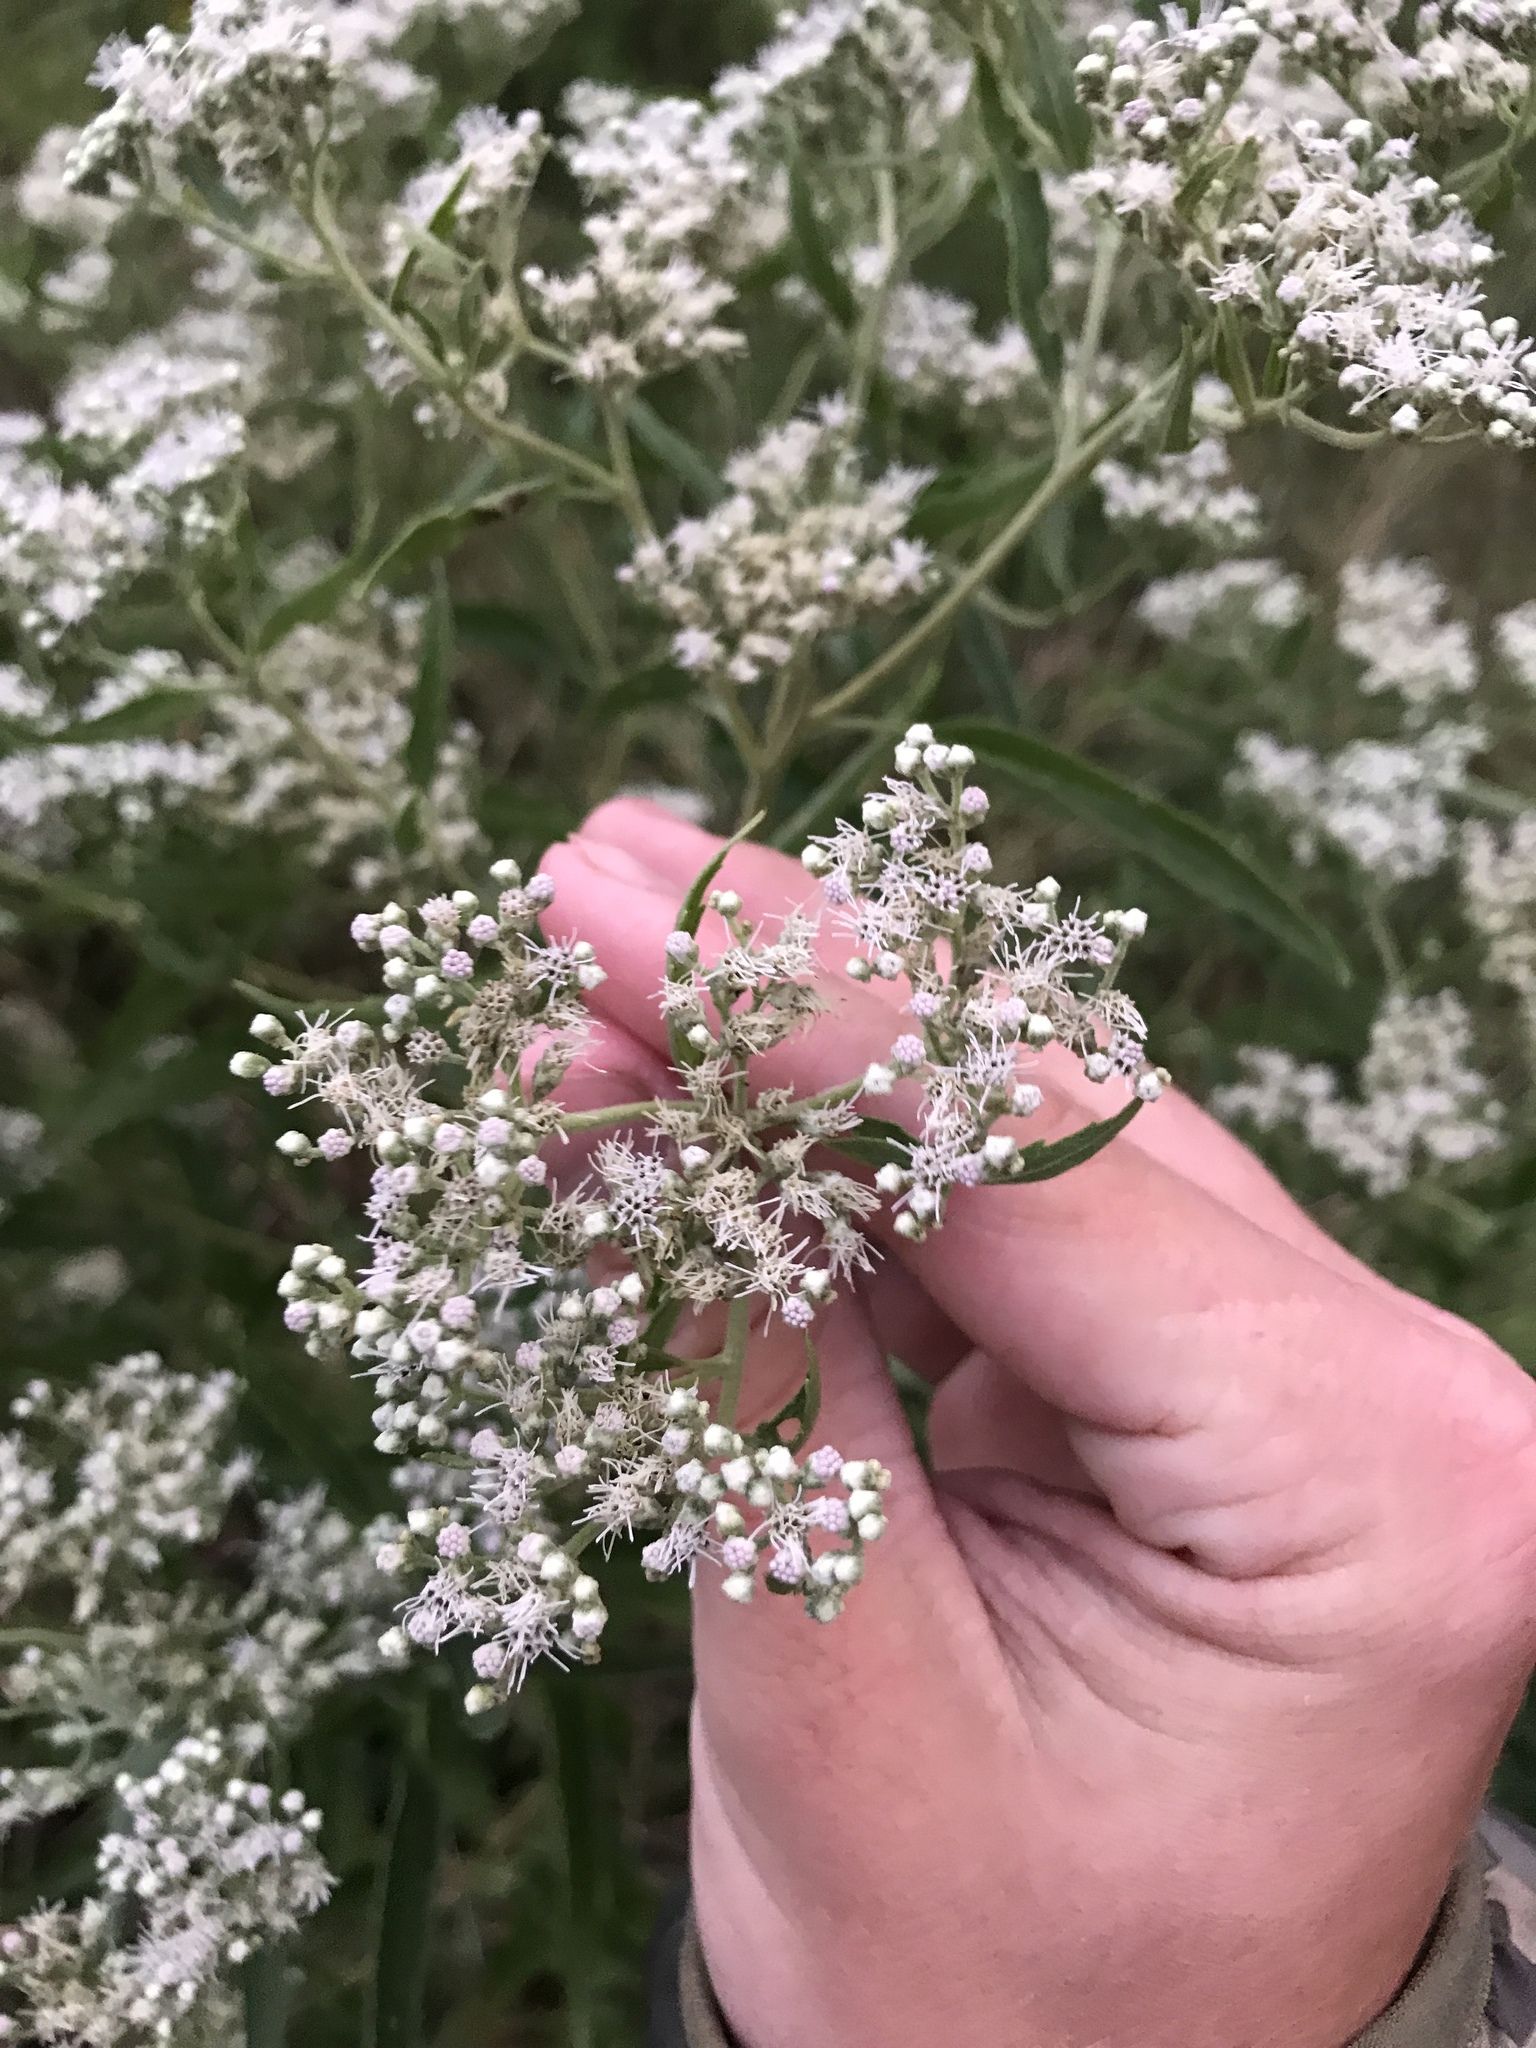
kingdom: Plantae
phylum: Tracheophyta
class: Magnoliopsida
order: Asterales
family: Asteraceae
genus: Eupatorium
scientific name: Eupatorium serotinum
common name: Late boneset
